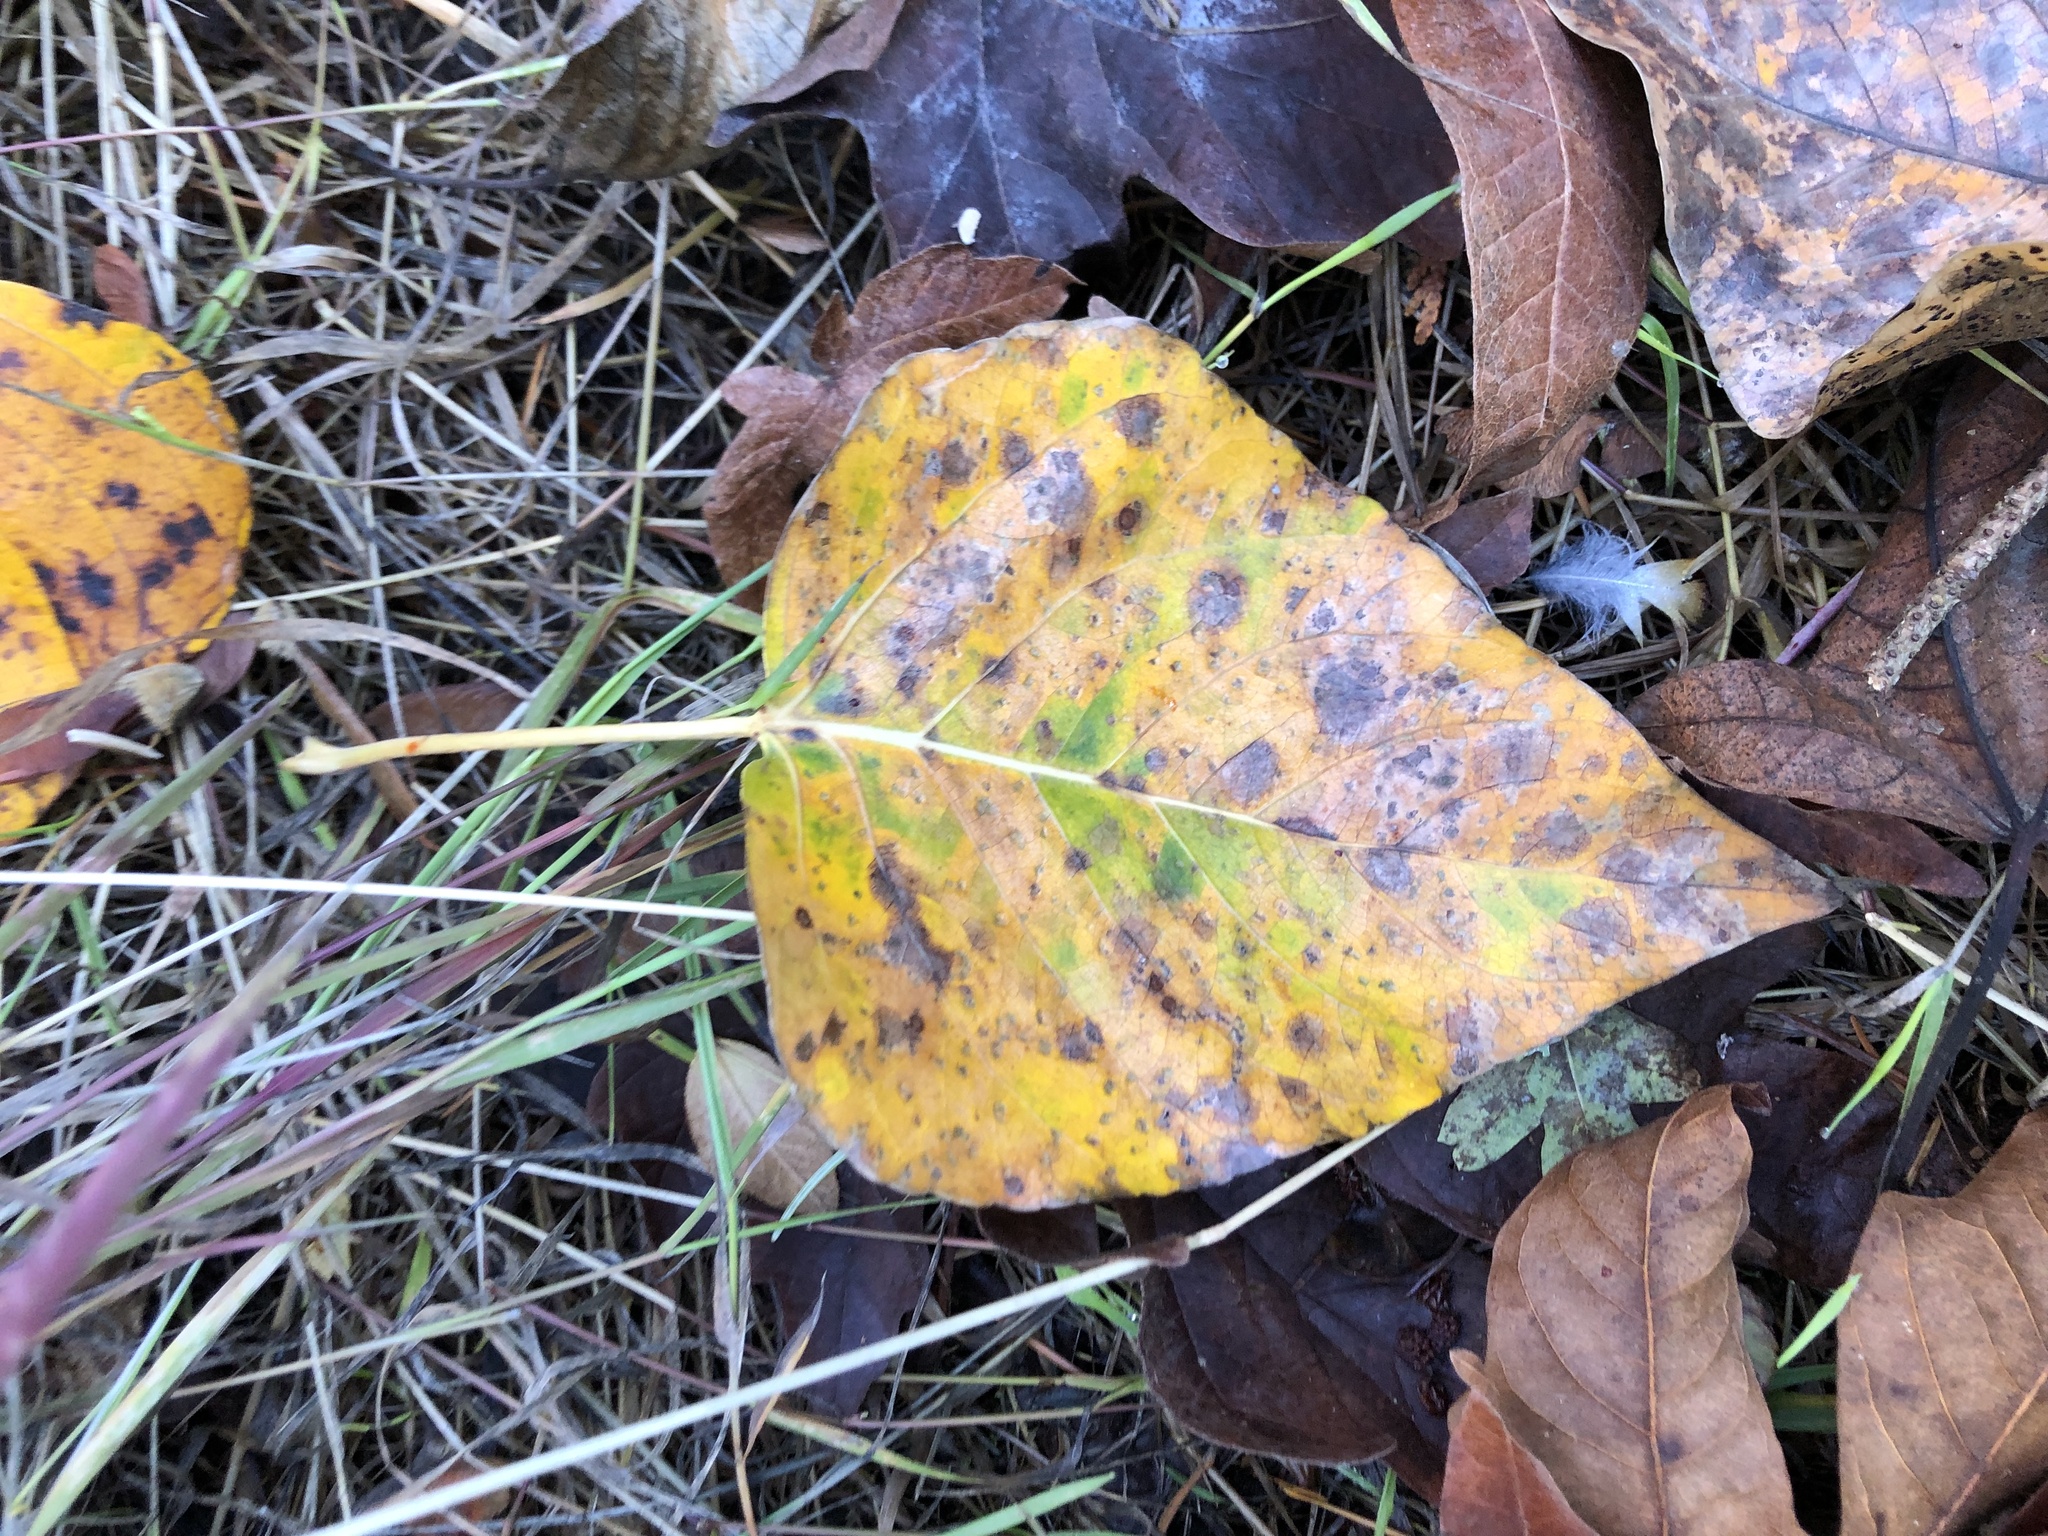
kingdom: Plantae
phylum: Tracheophyta
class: Magnoliopsida
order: Malpighiales
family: Salicaceae
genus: Populus
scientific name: Populus trichocarpa
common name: Black cottonwood
